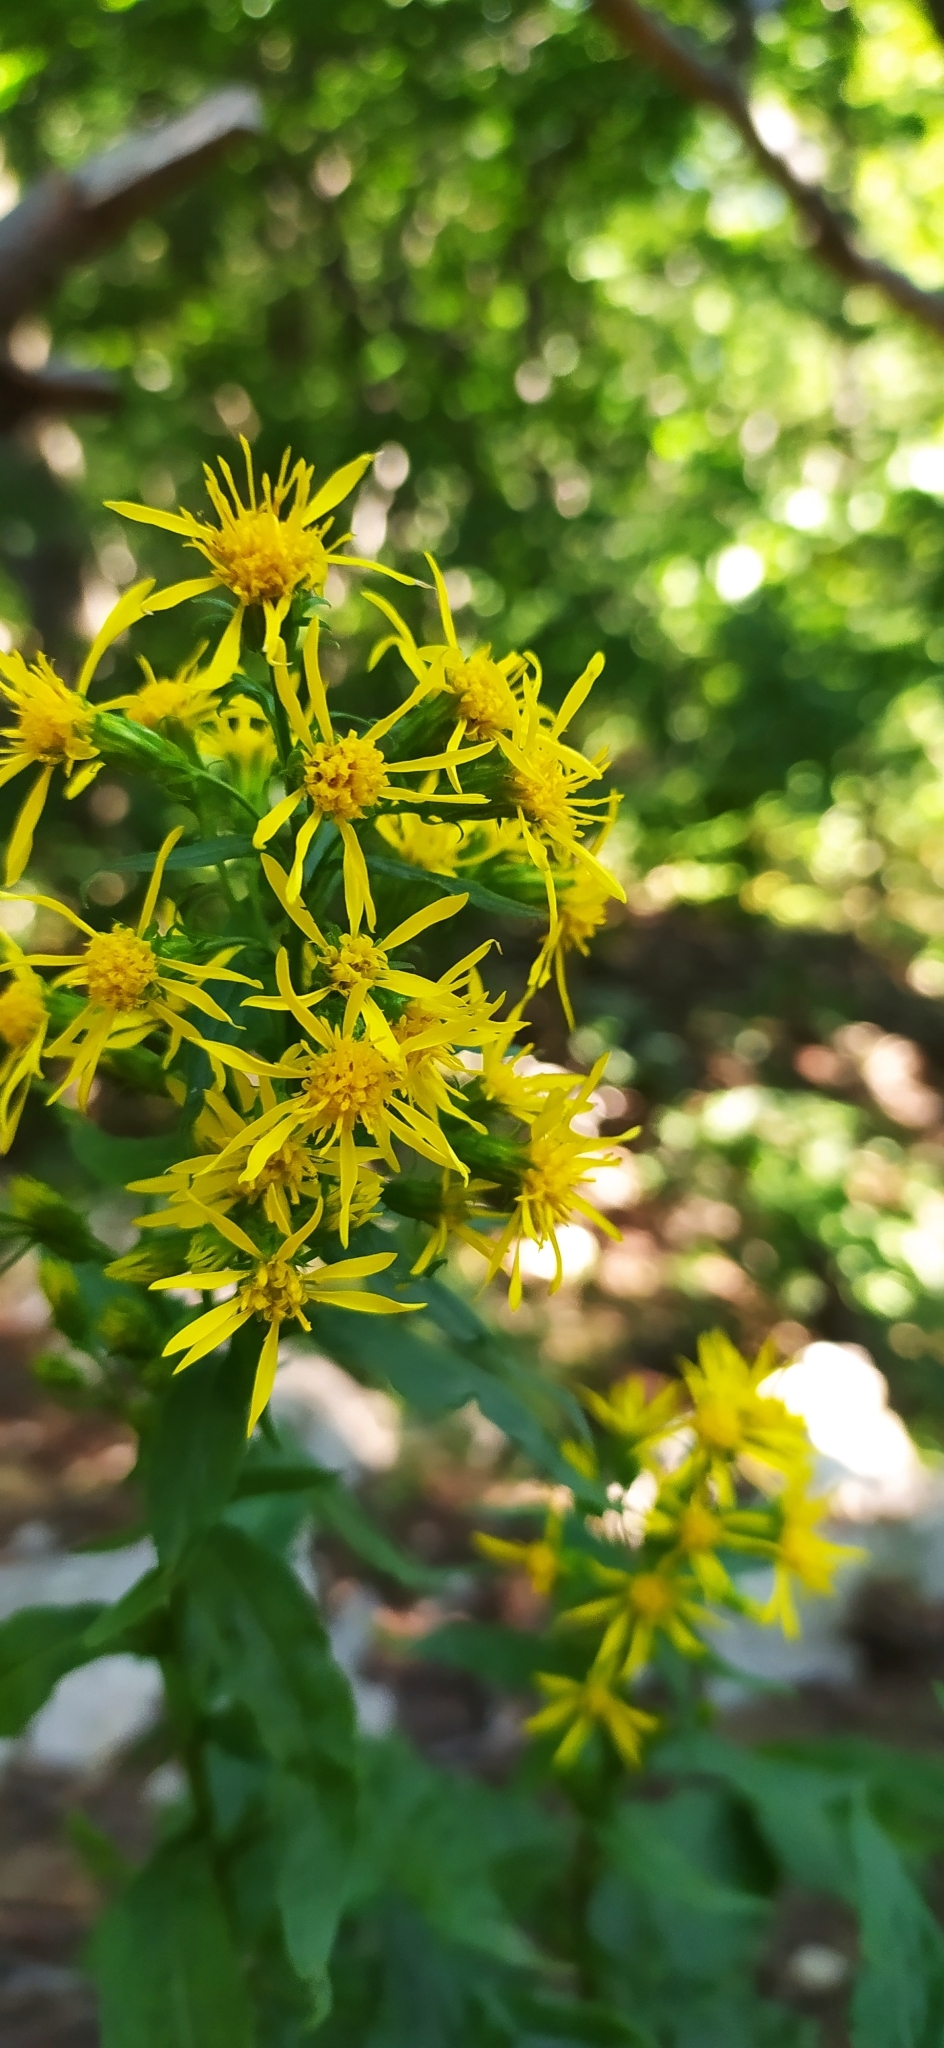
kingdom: Plantae
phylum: Tracheophyta
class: Magnoliopsida
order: Asterales
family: Asteraceae
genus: Solidago
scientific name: Solidago virgaurea
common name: Goldenrod
